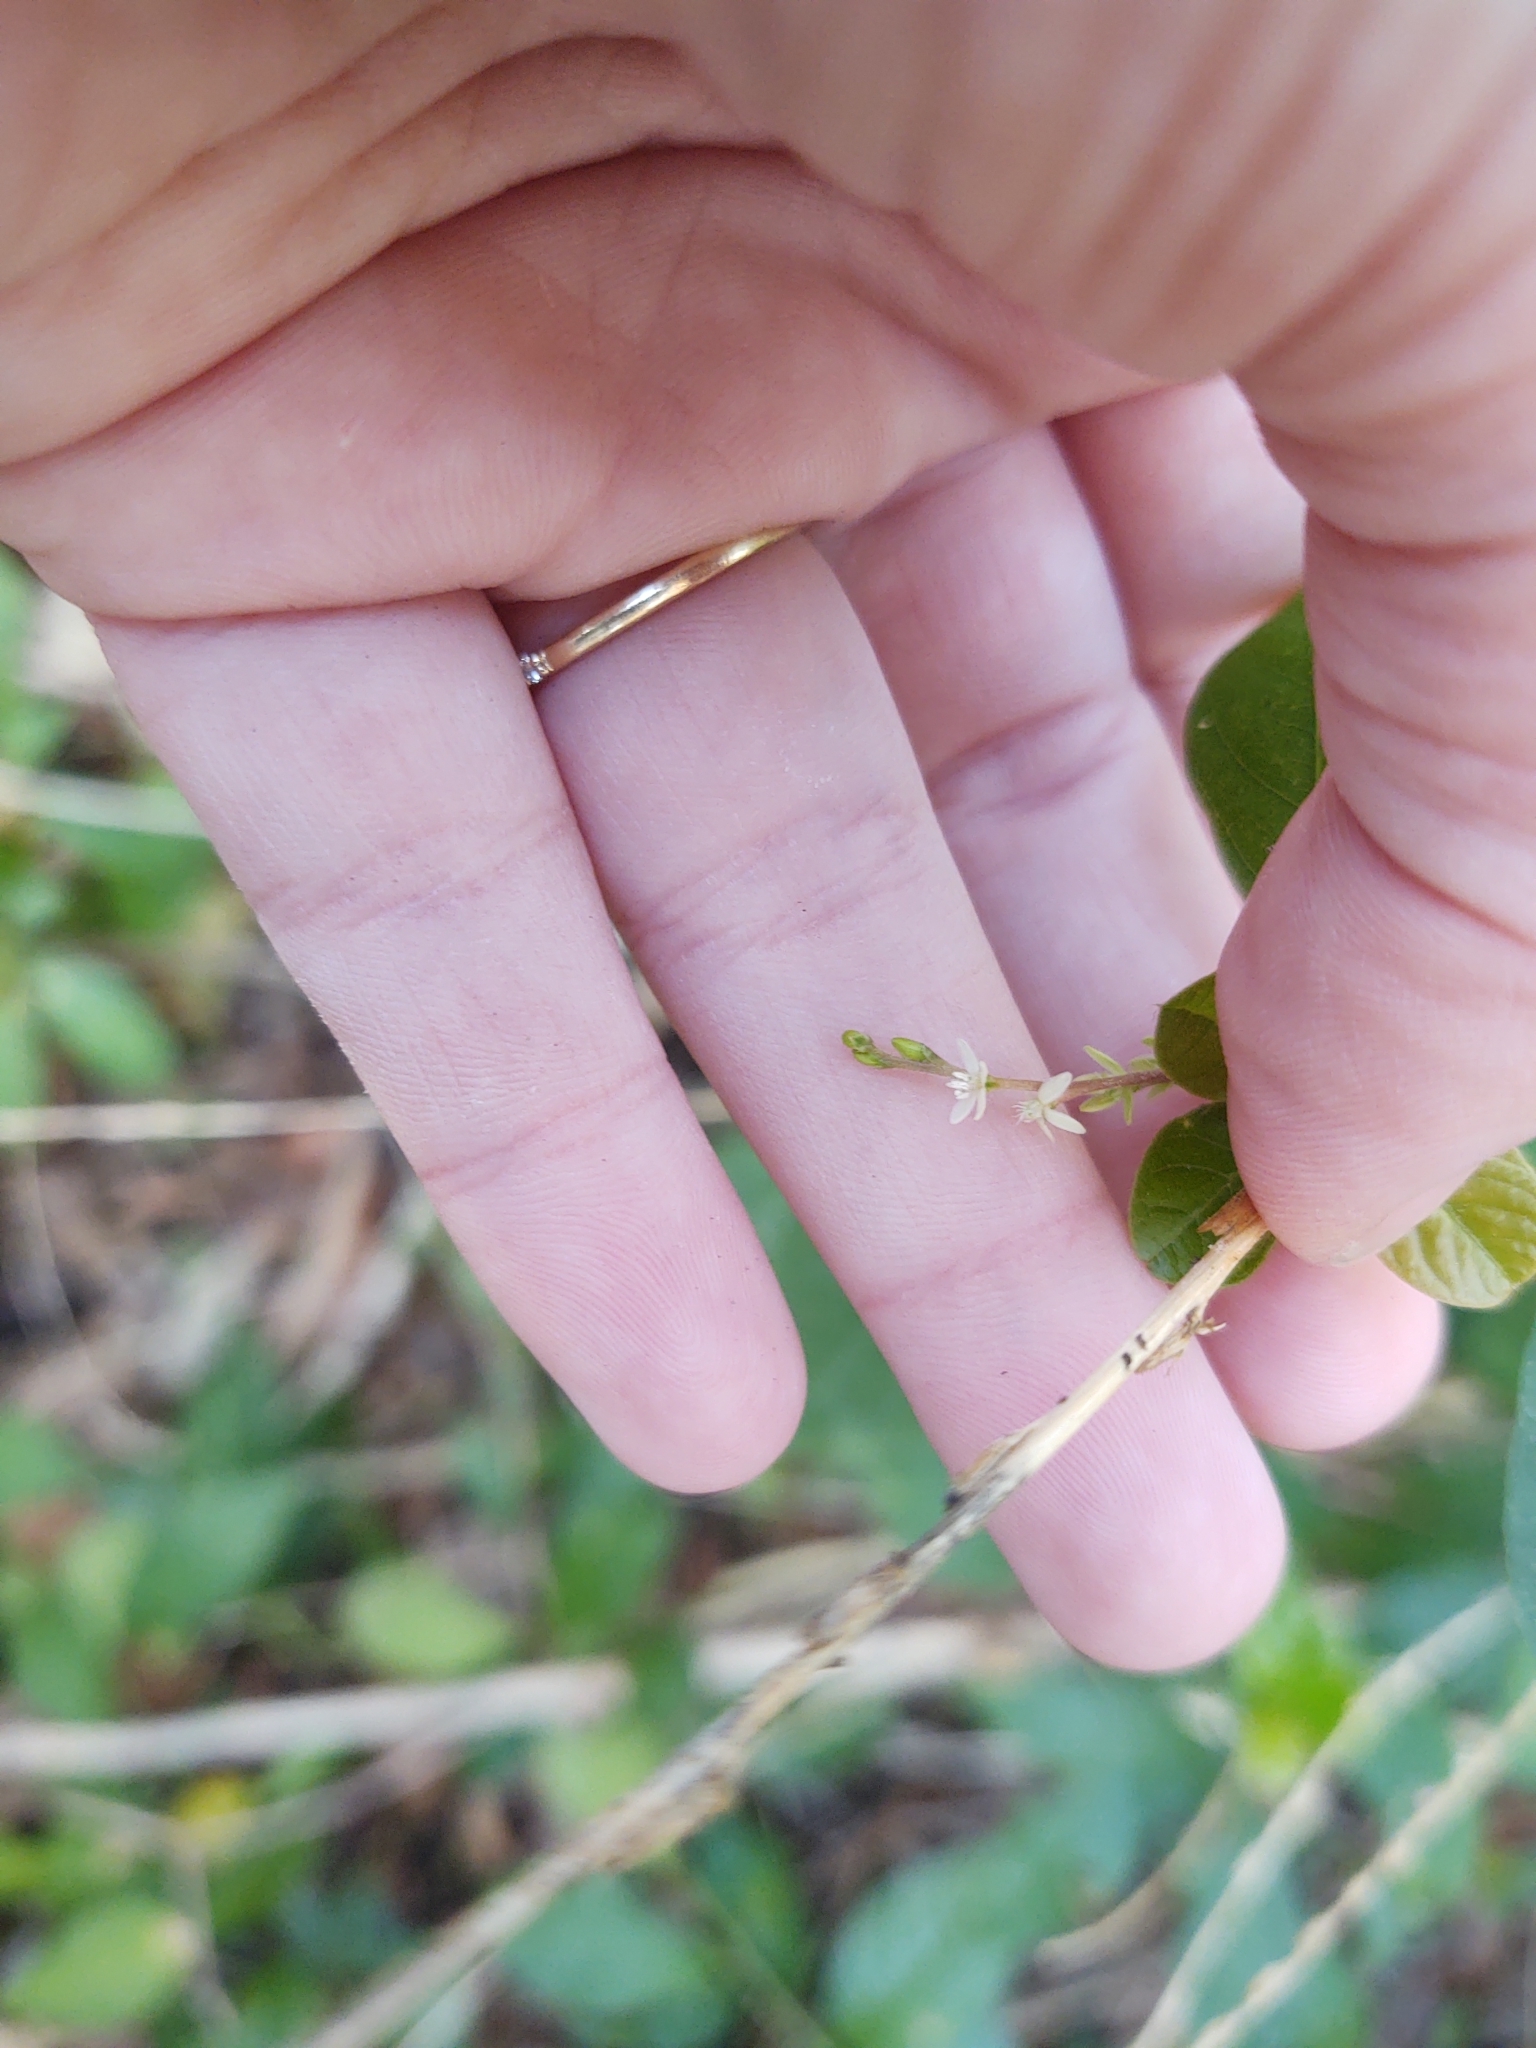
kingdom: Plantae
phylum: Tracheophyta
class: Magnoliopsida
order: Caryophyllales
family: Phytolaccaceae
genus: Petiveria
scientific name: Petiveria alliacea
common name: Garlicweed
